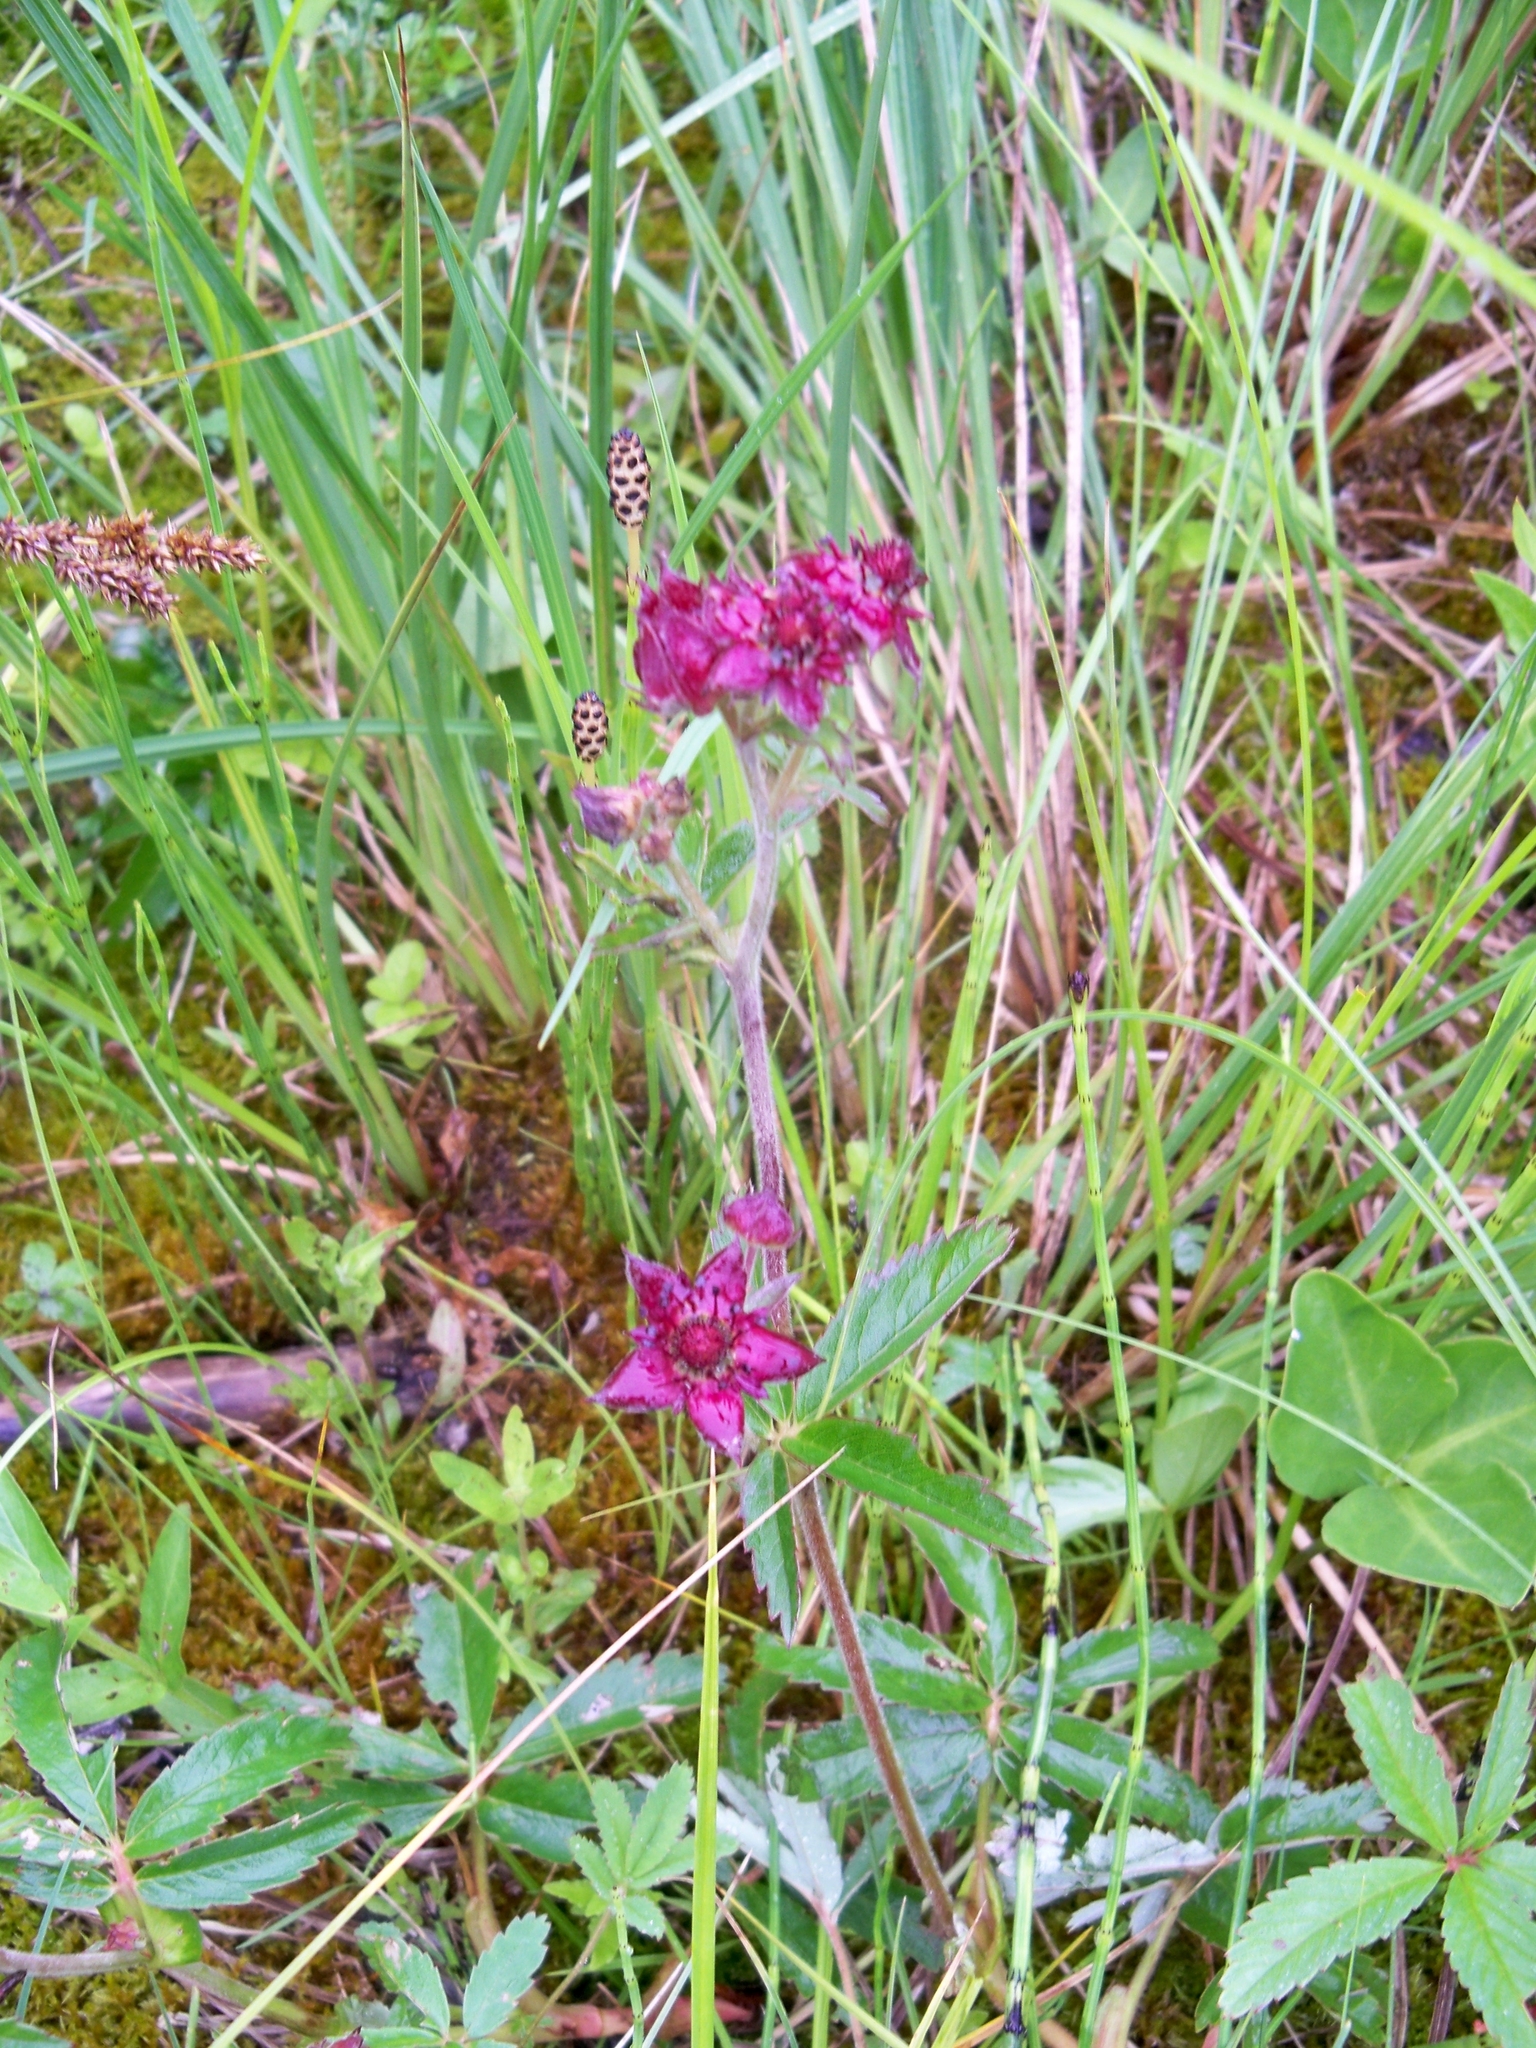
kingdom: Plantae
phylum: Tracheophyta
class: Magnoliopsida
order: Rosales
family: Rosaceae
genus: Comarum
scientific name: Comarum palustre
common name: Marsh cinquefoil
